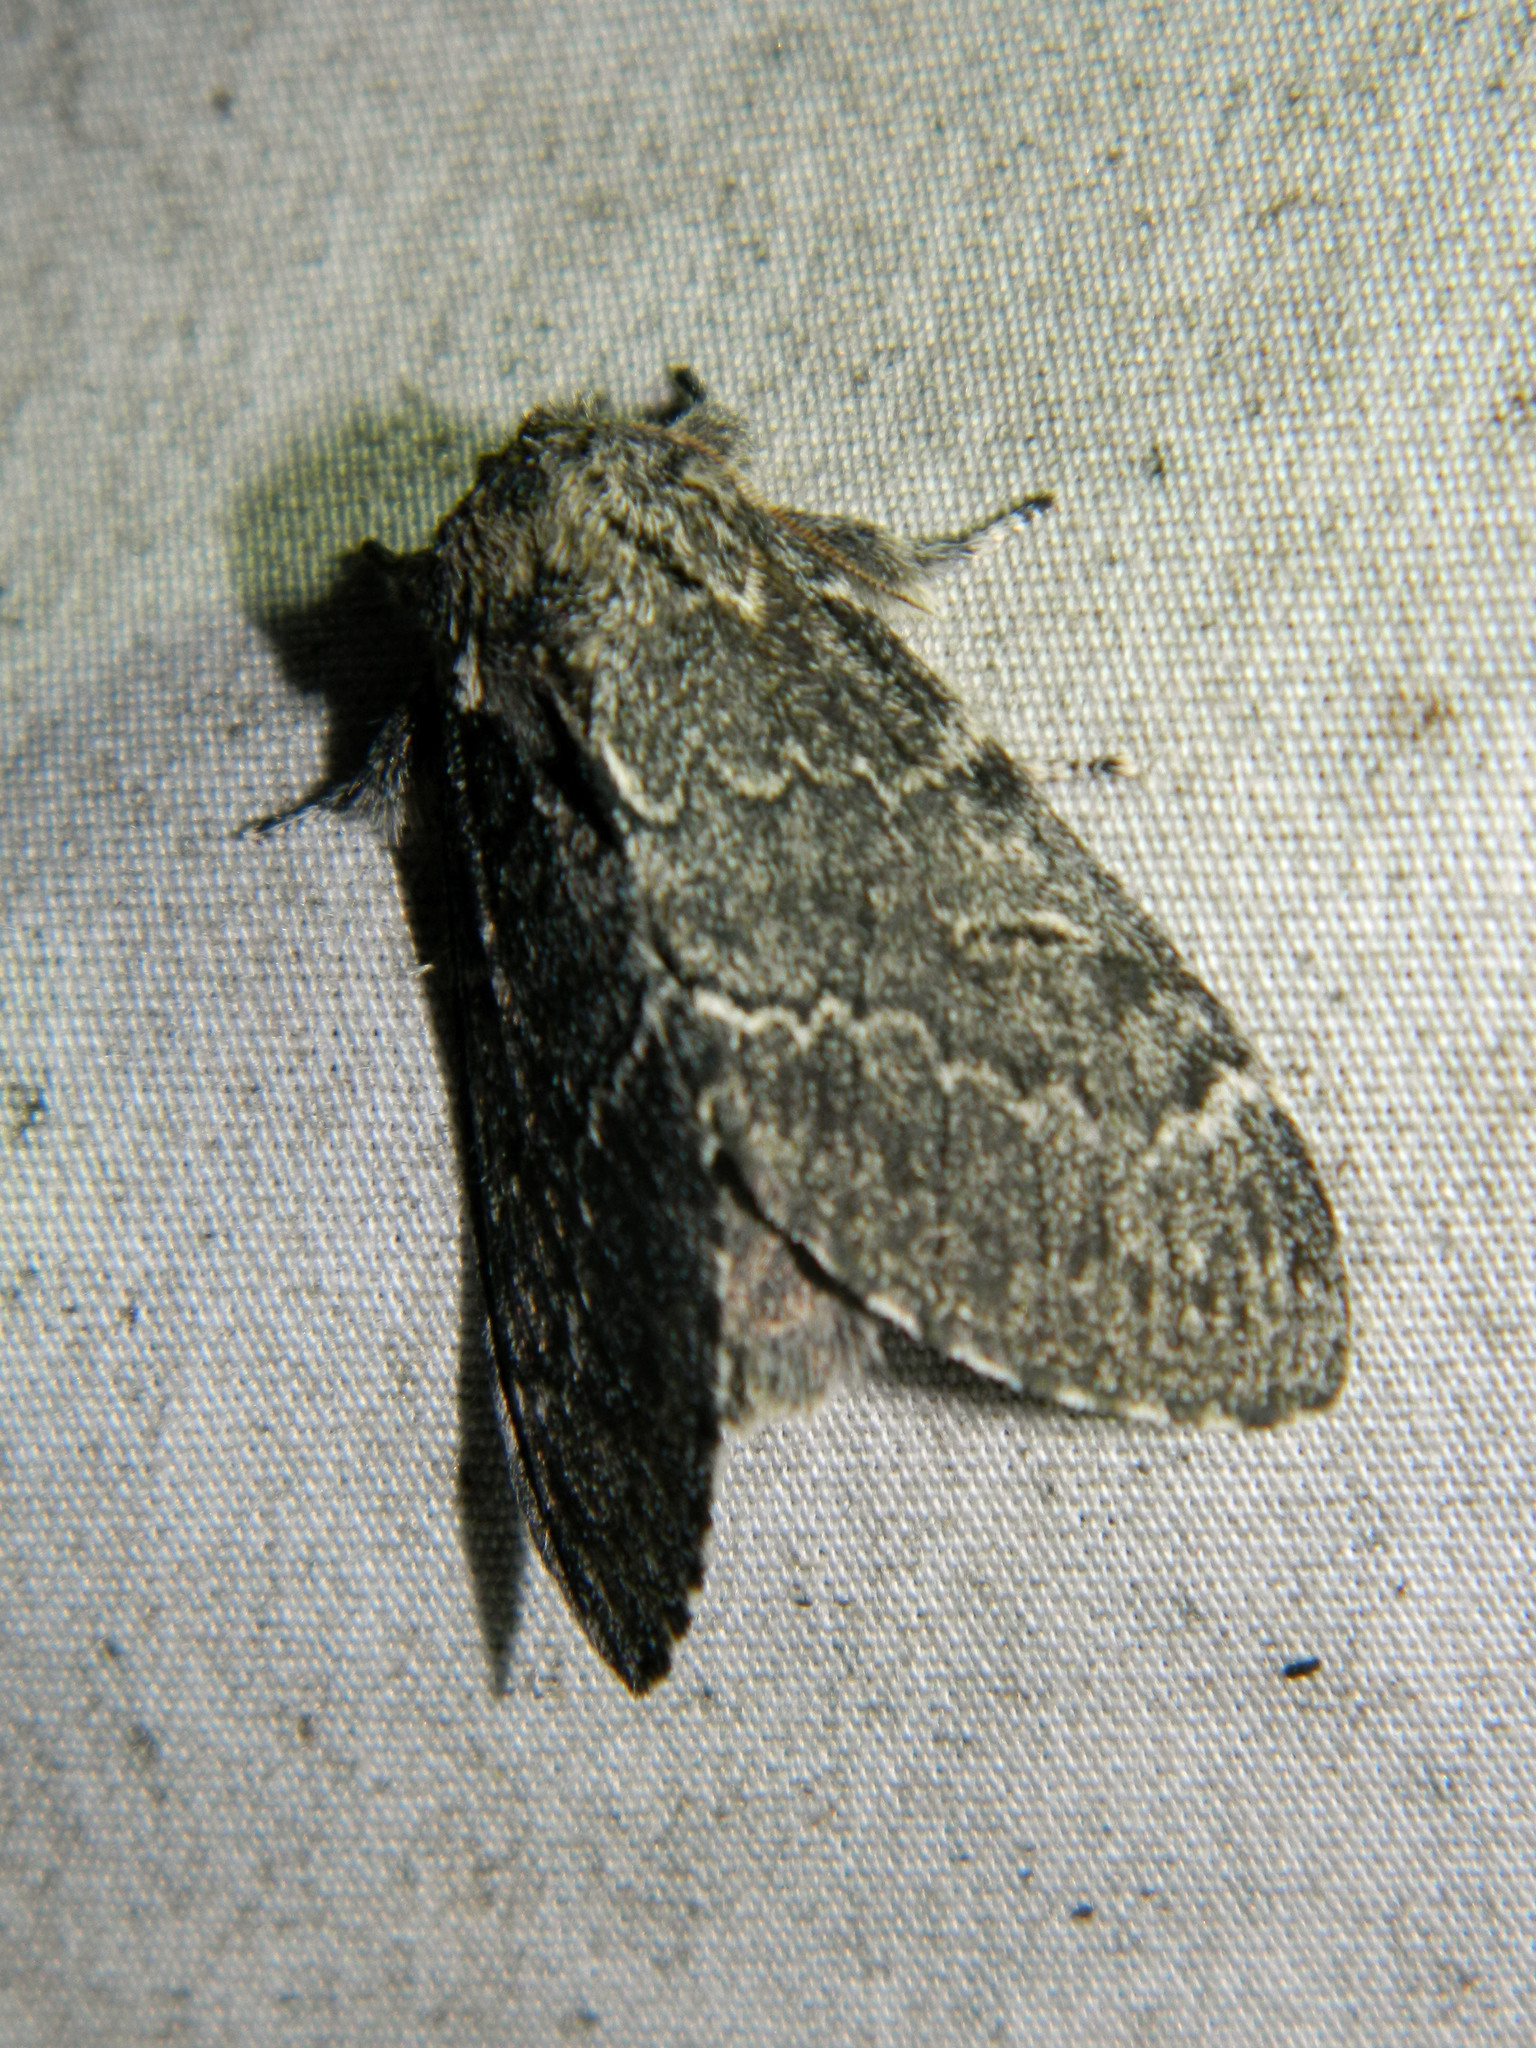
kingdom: Animalia
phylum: Arthropoda
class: Insecta
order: Lepidoptera
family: Notodontidae
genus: Notodonta
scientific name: Notodonta torva
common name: Large dark prominent
